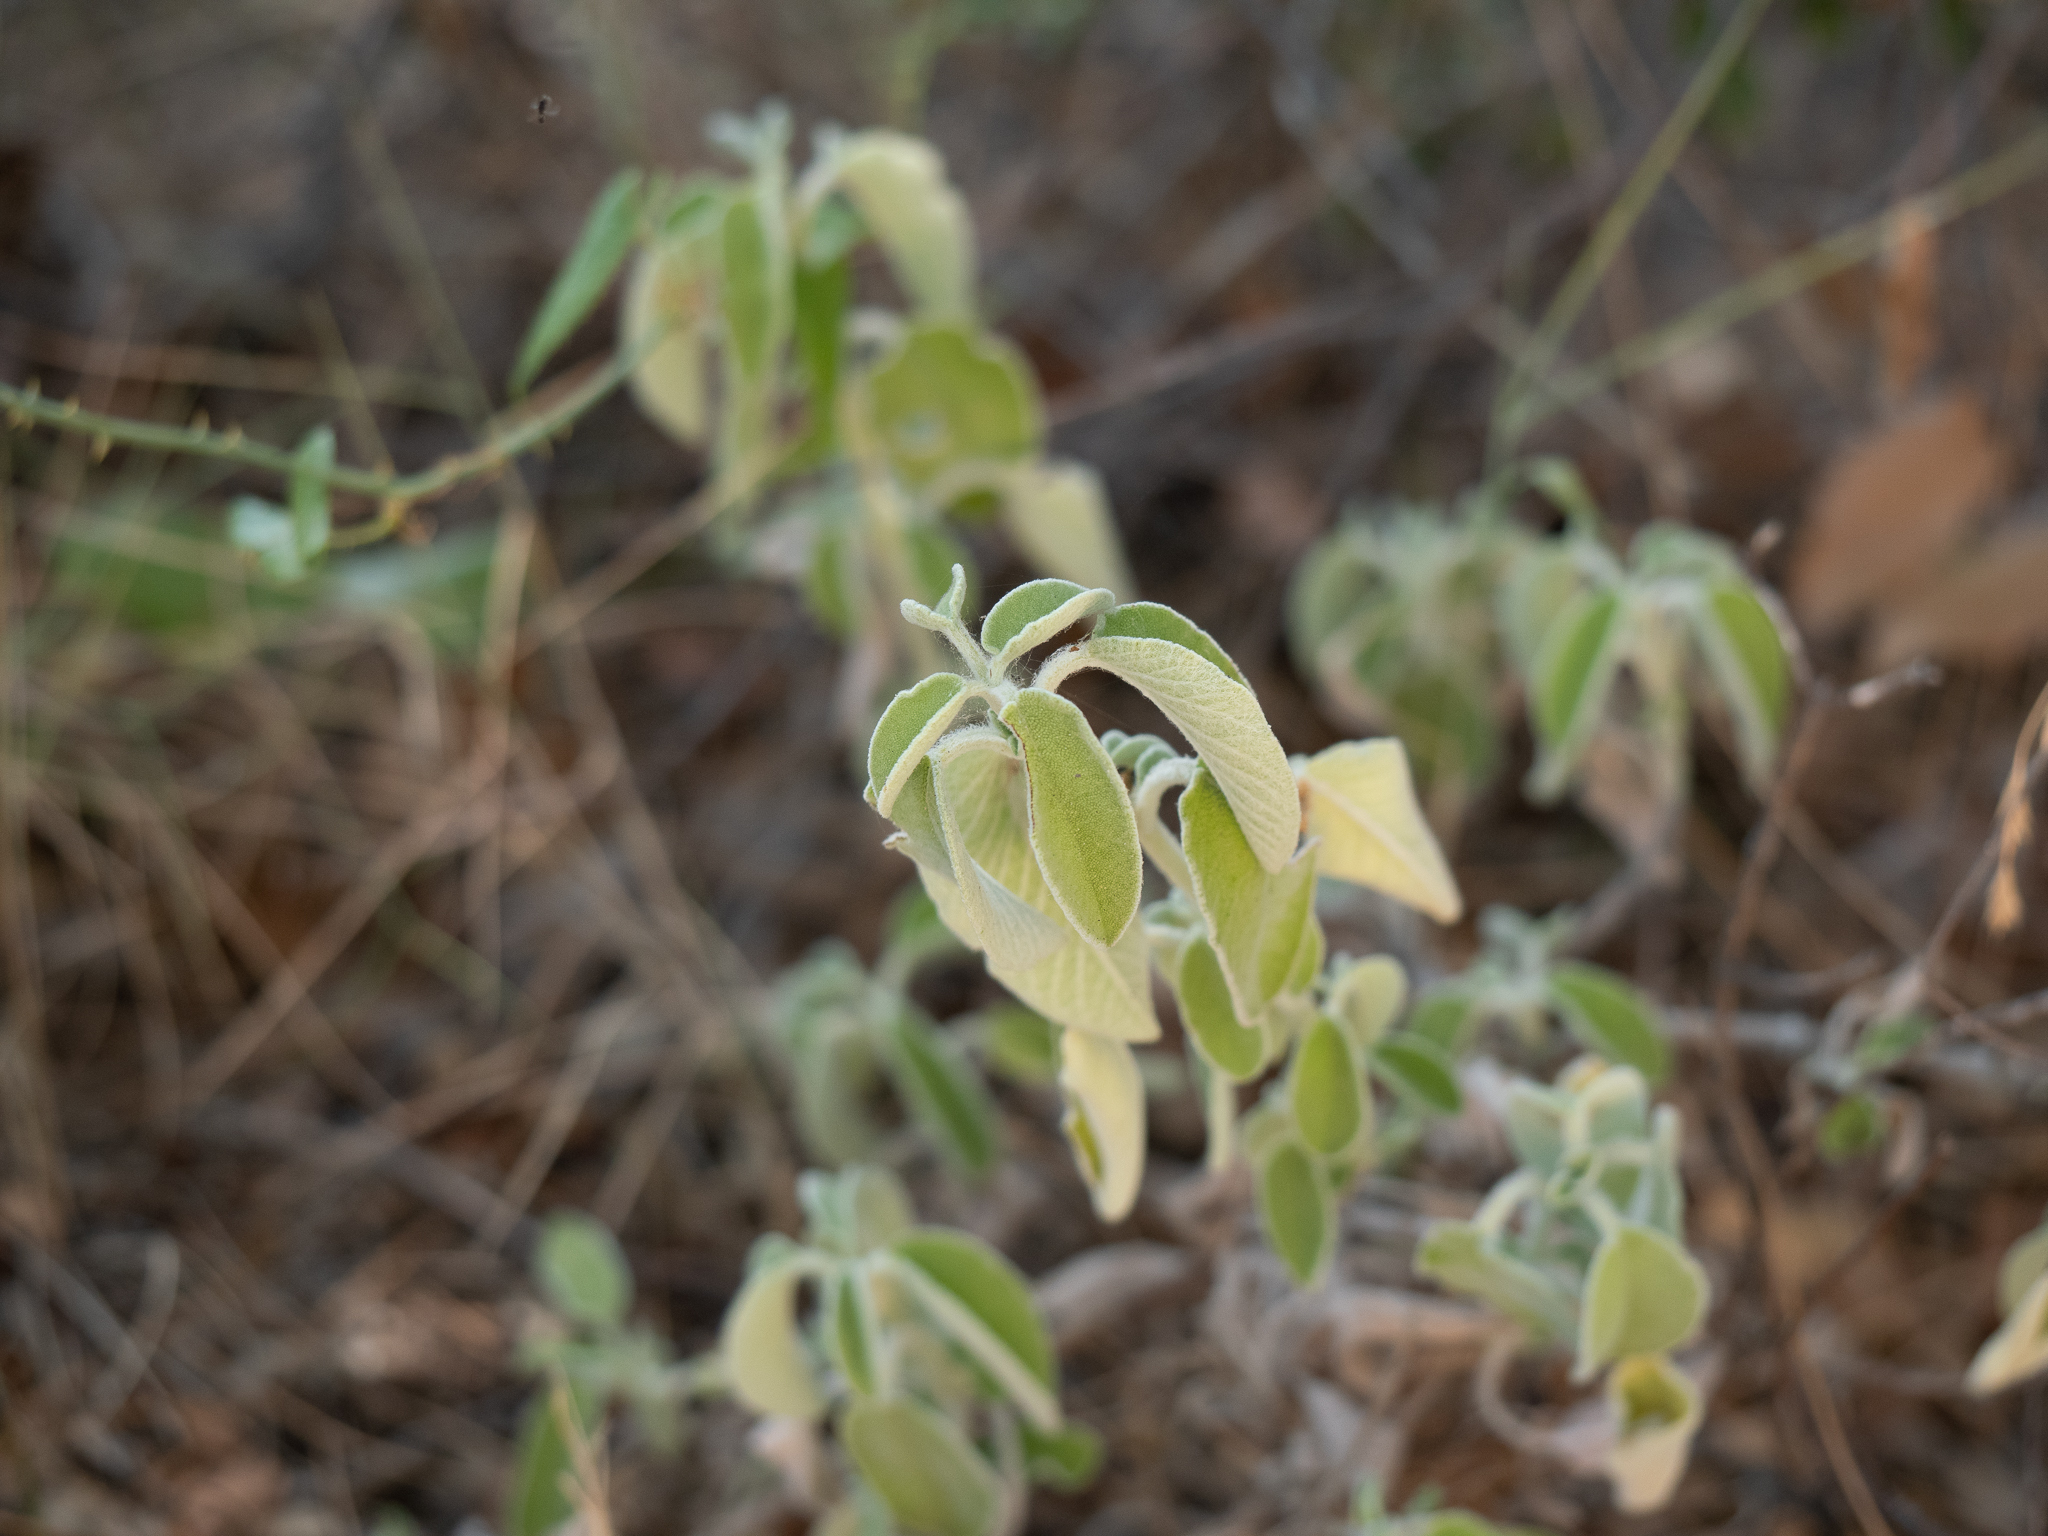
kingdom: Plantae
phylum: Tracheophyta
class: Magnoliopsida
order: Lamiales
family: Lamiaceae
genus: Salvia
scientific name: Salvia fruticosa
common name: Greek sage
